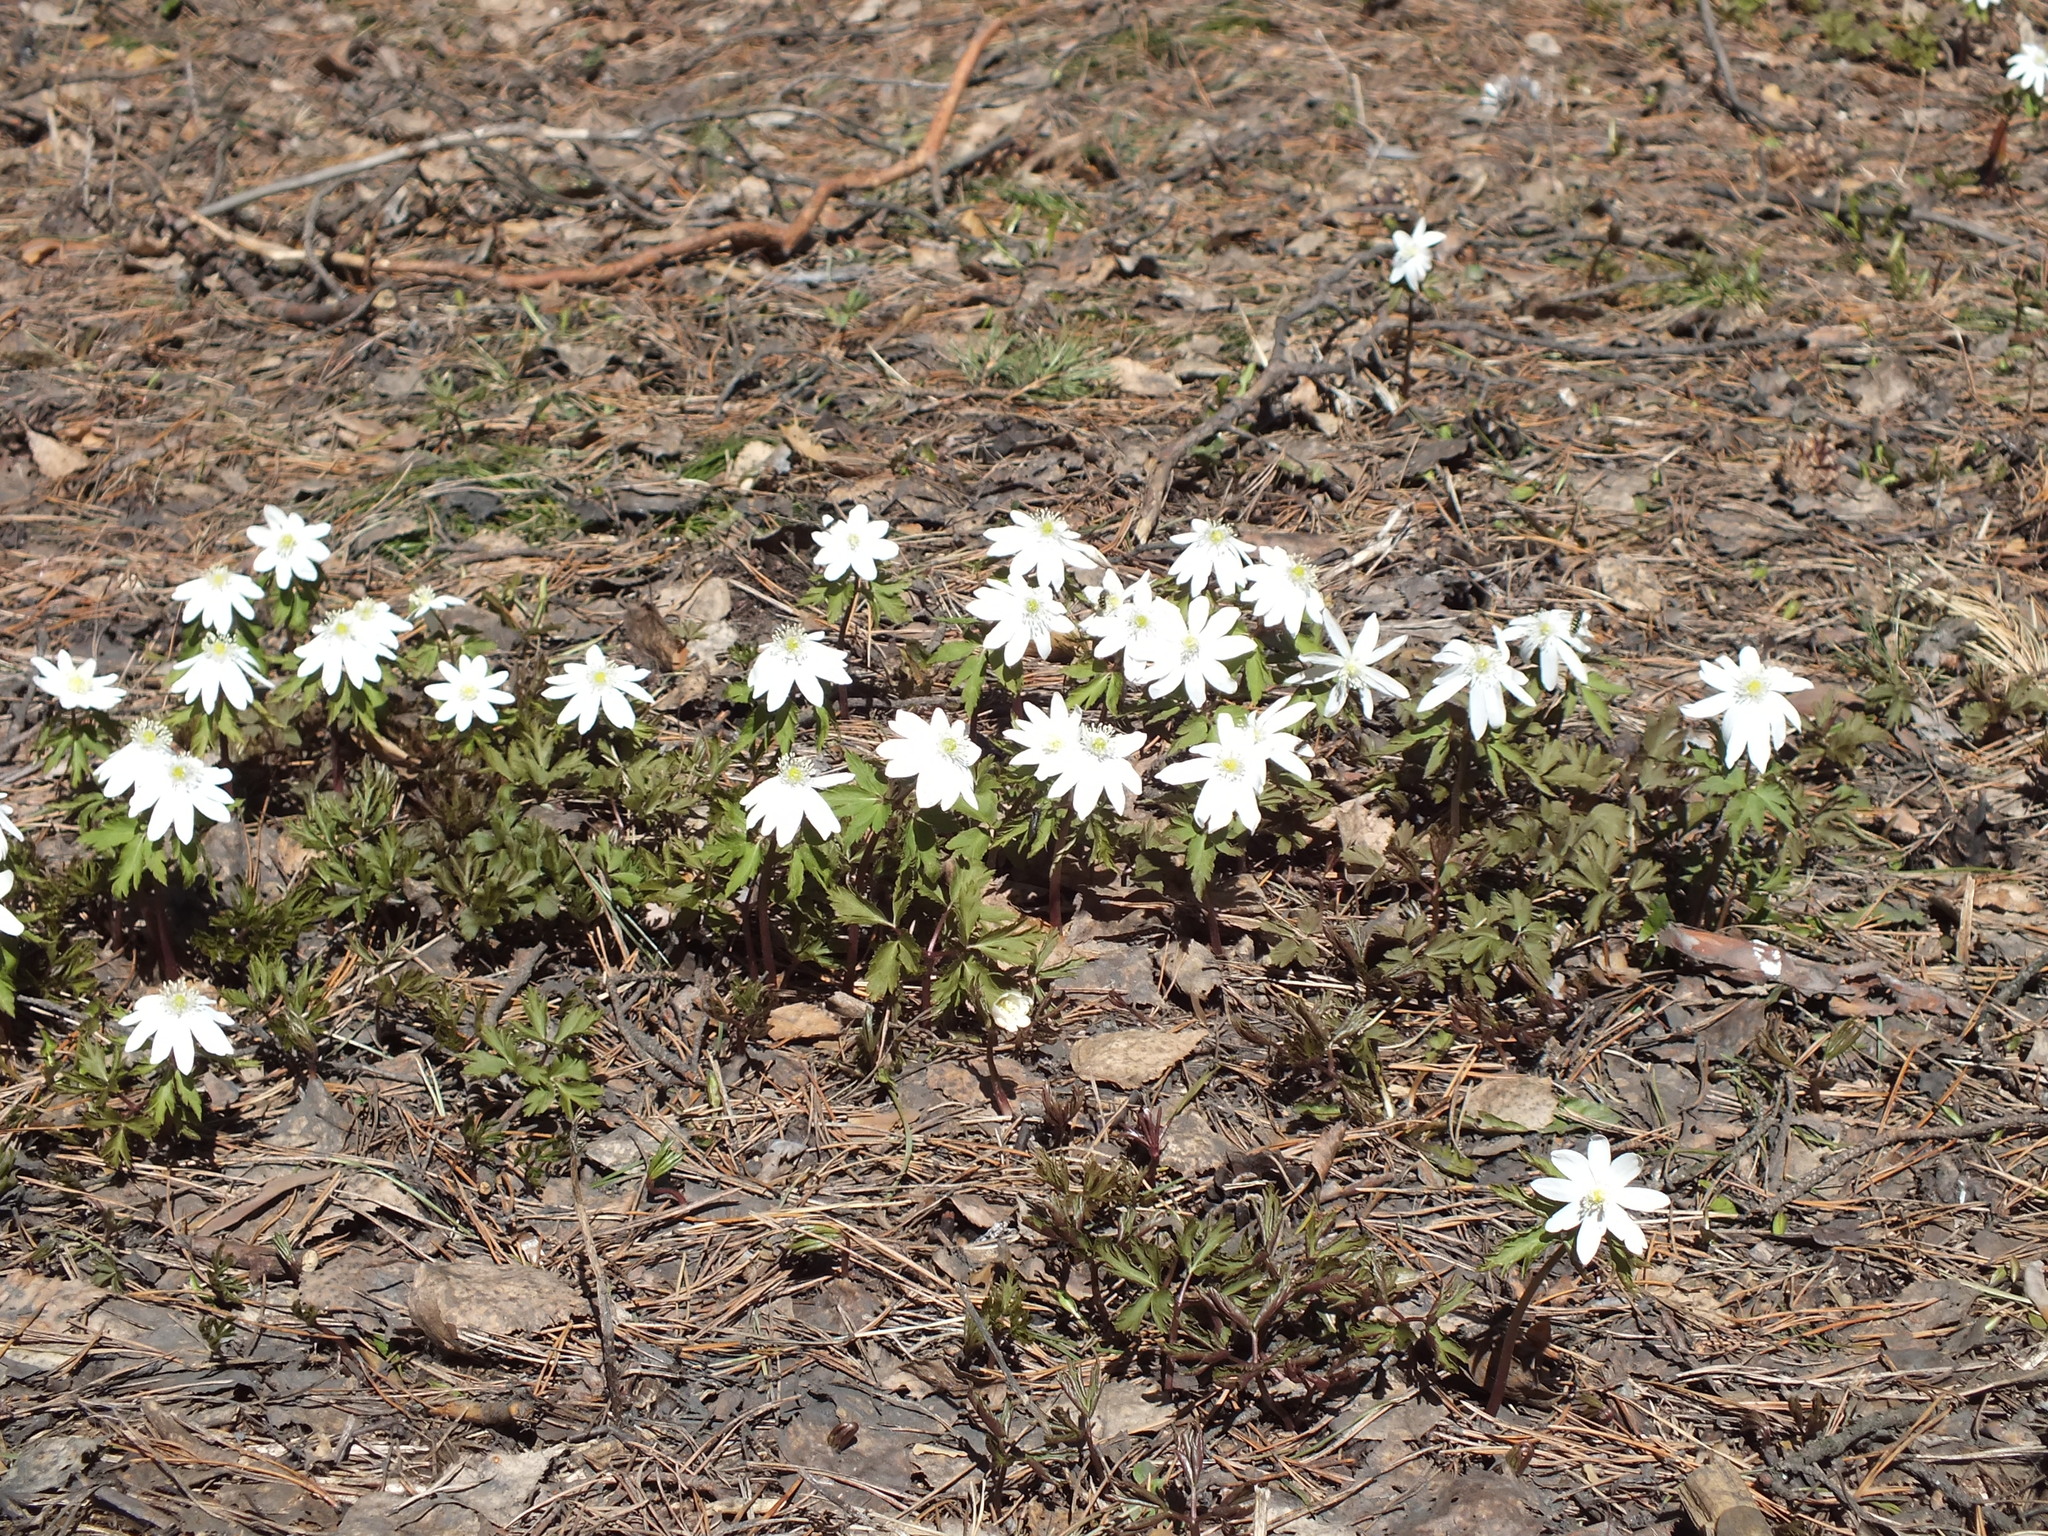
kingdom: Plantae
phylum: Tracheophyta
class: Magnoliopsida
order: Ranunculales
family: Ranunculaceae
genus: Anemone
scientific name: Anemone altaica
